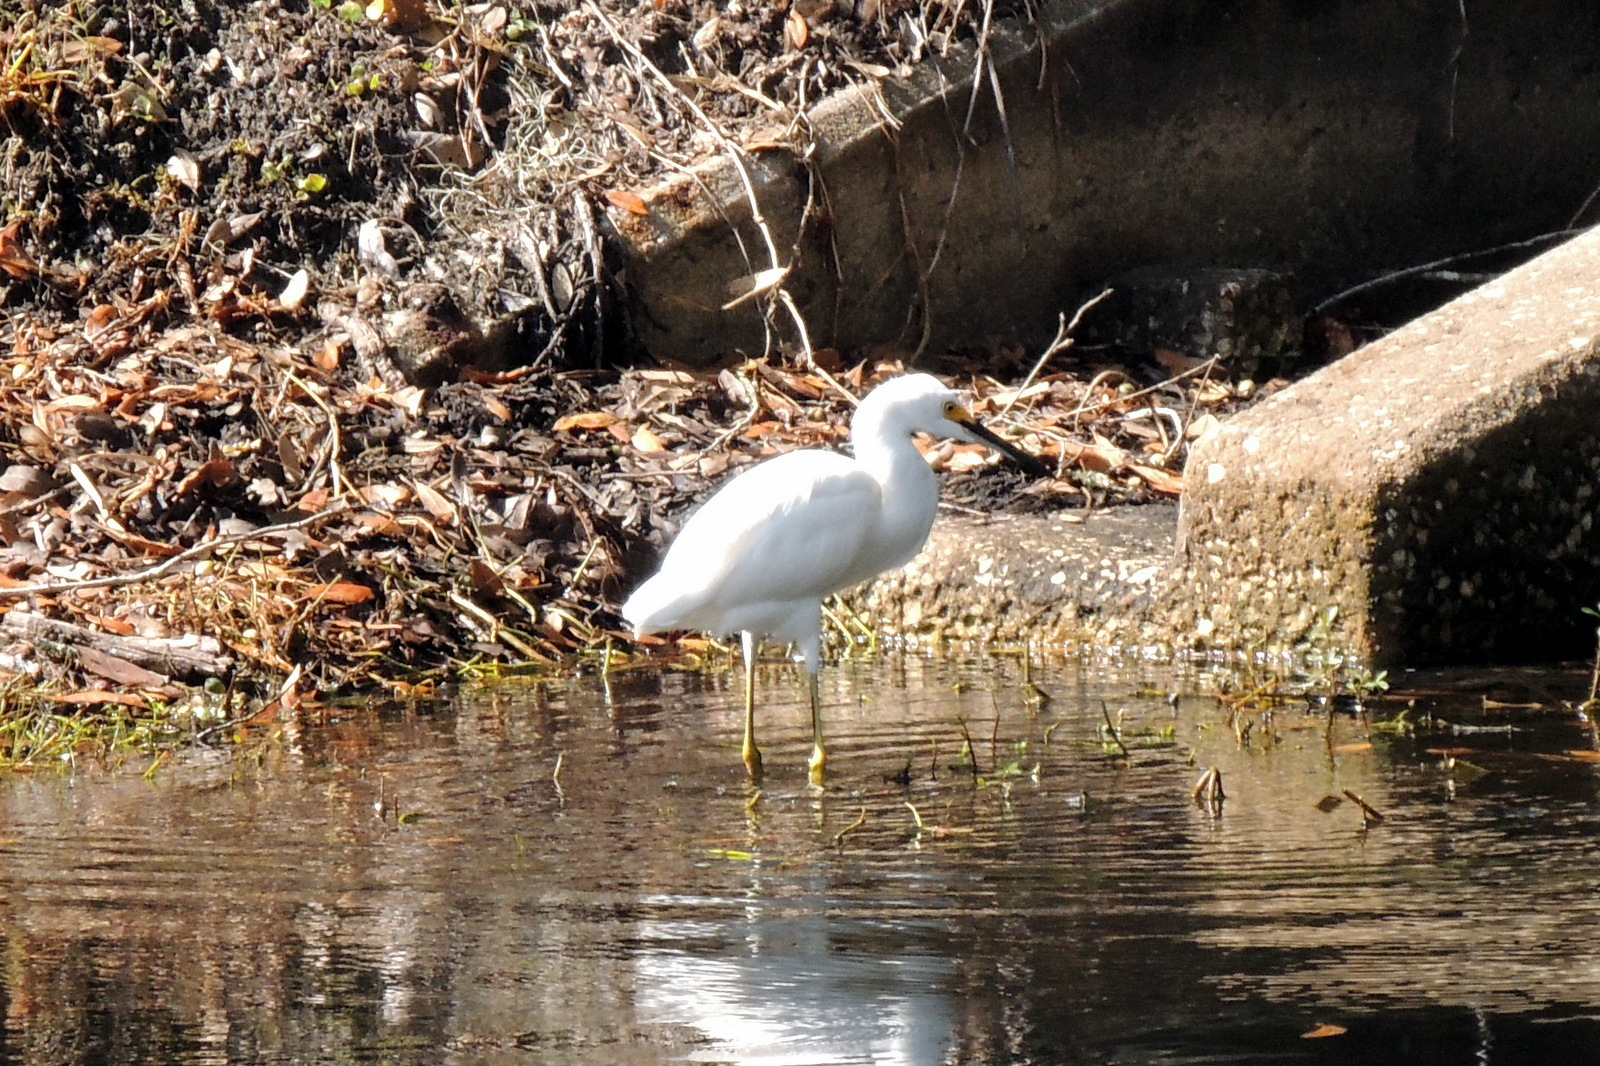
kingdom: Animalia
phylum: Chordata
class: Aves
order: Pelecaniformes
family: Ardeidae
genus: Egretta
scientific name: Egretta thula
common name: Snowy egret
